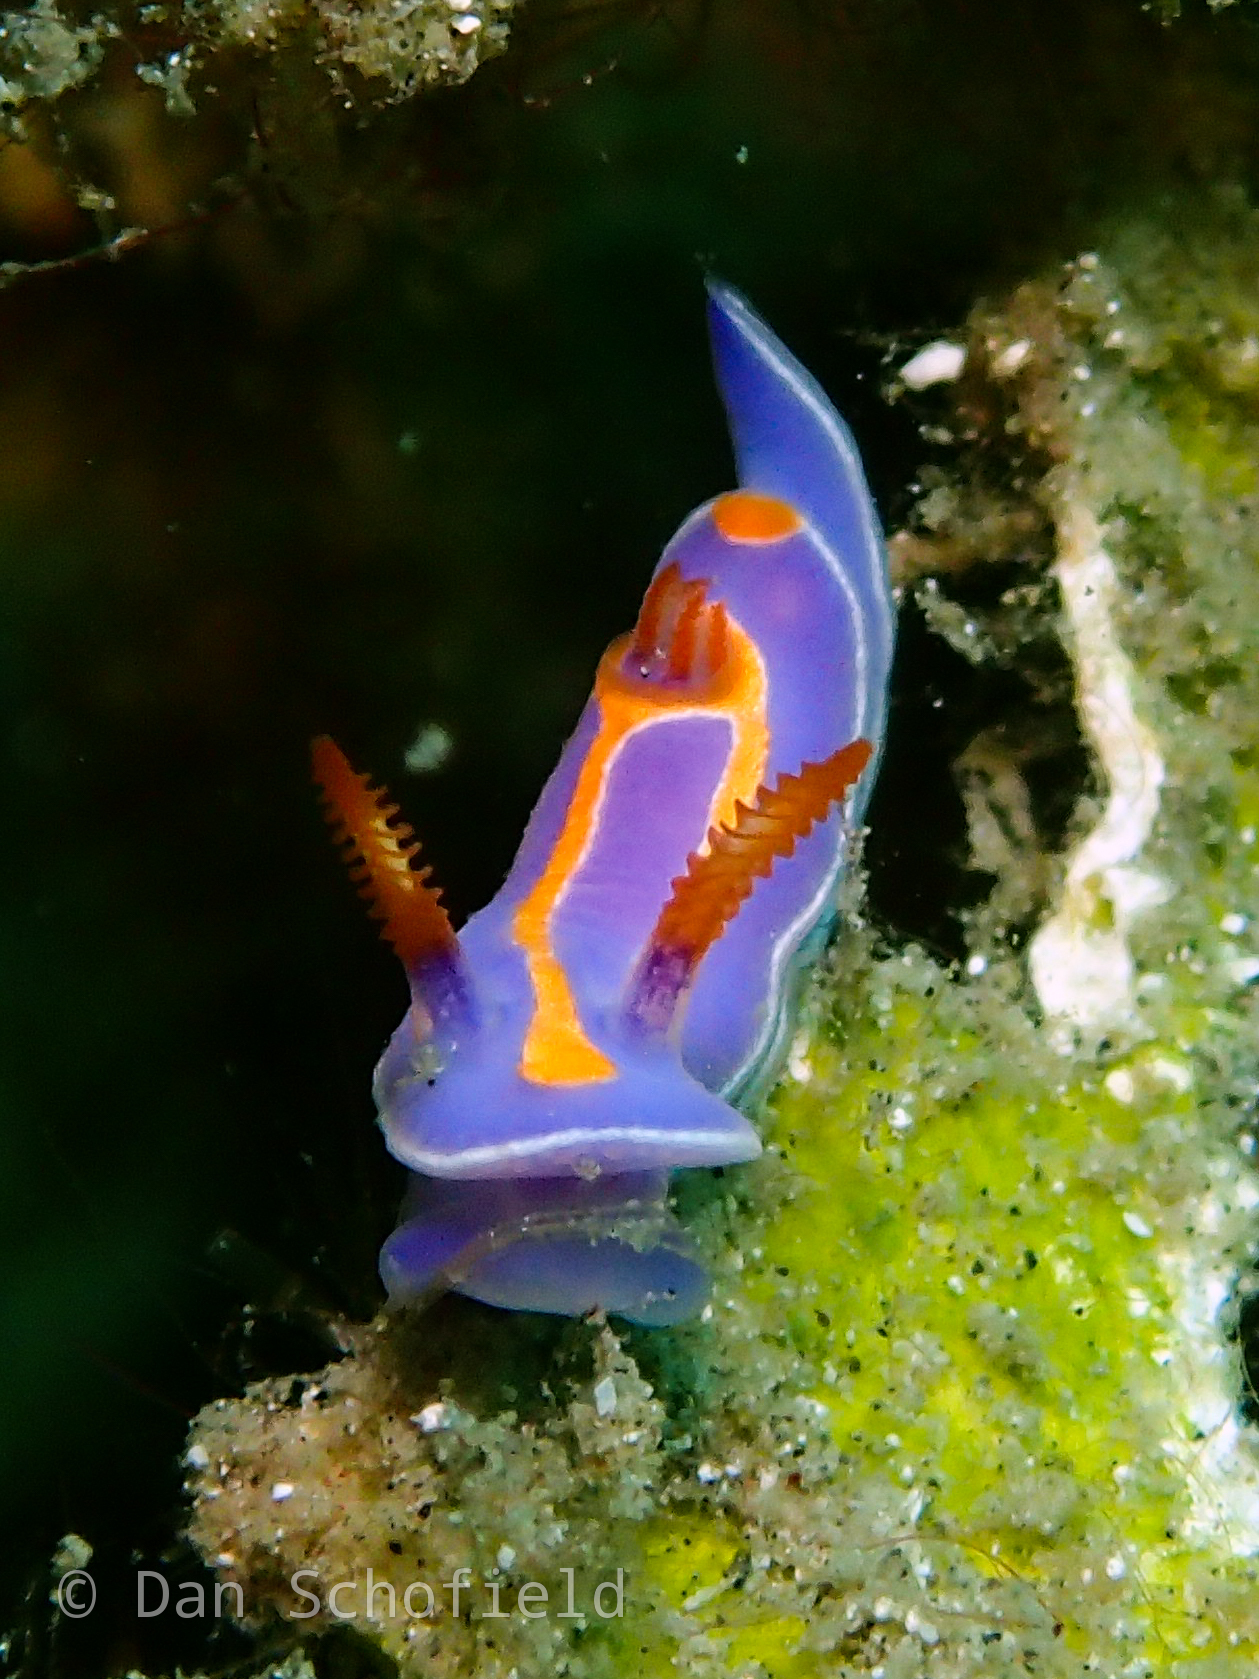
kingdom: Animalia
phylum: Mollusca
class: Gastropoda
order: Nudibranchia
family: Chromodorididae
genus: Mexichromis
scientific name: Mexichromis trilineata
